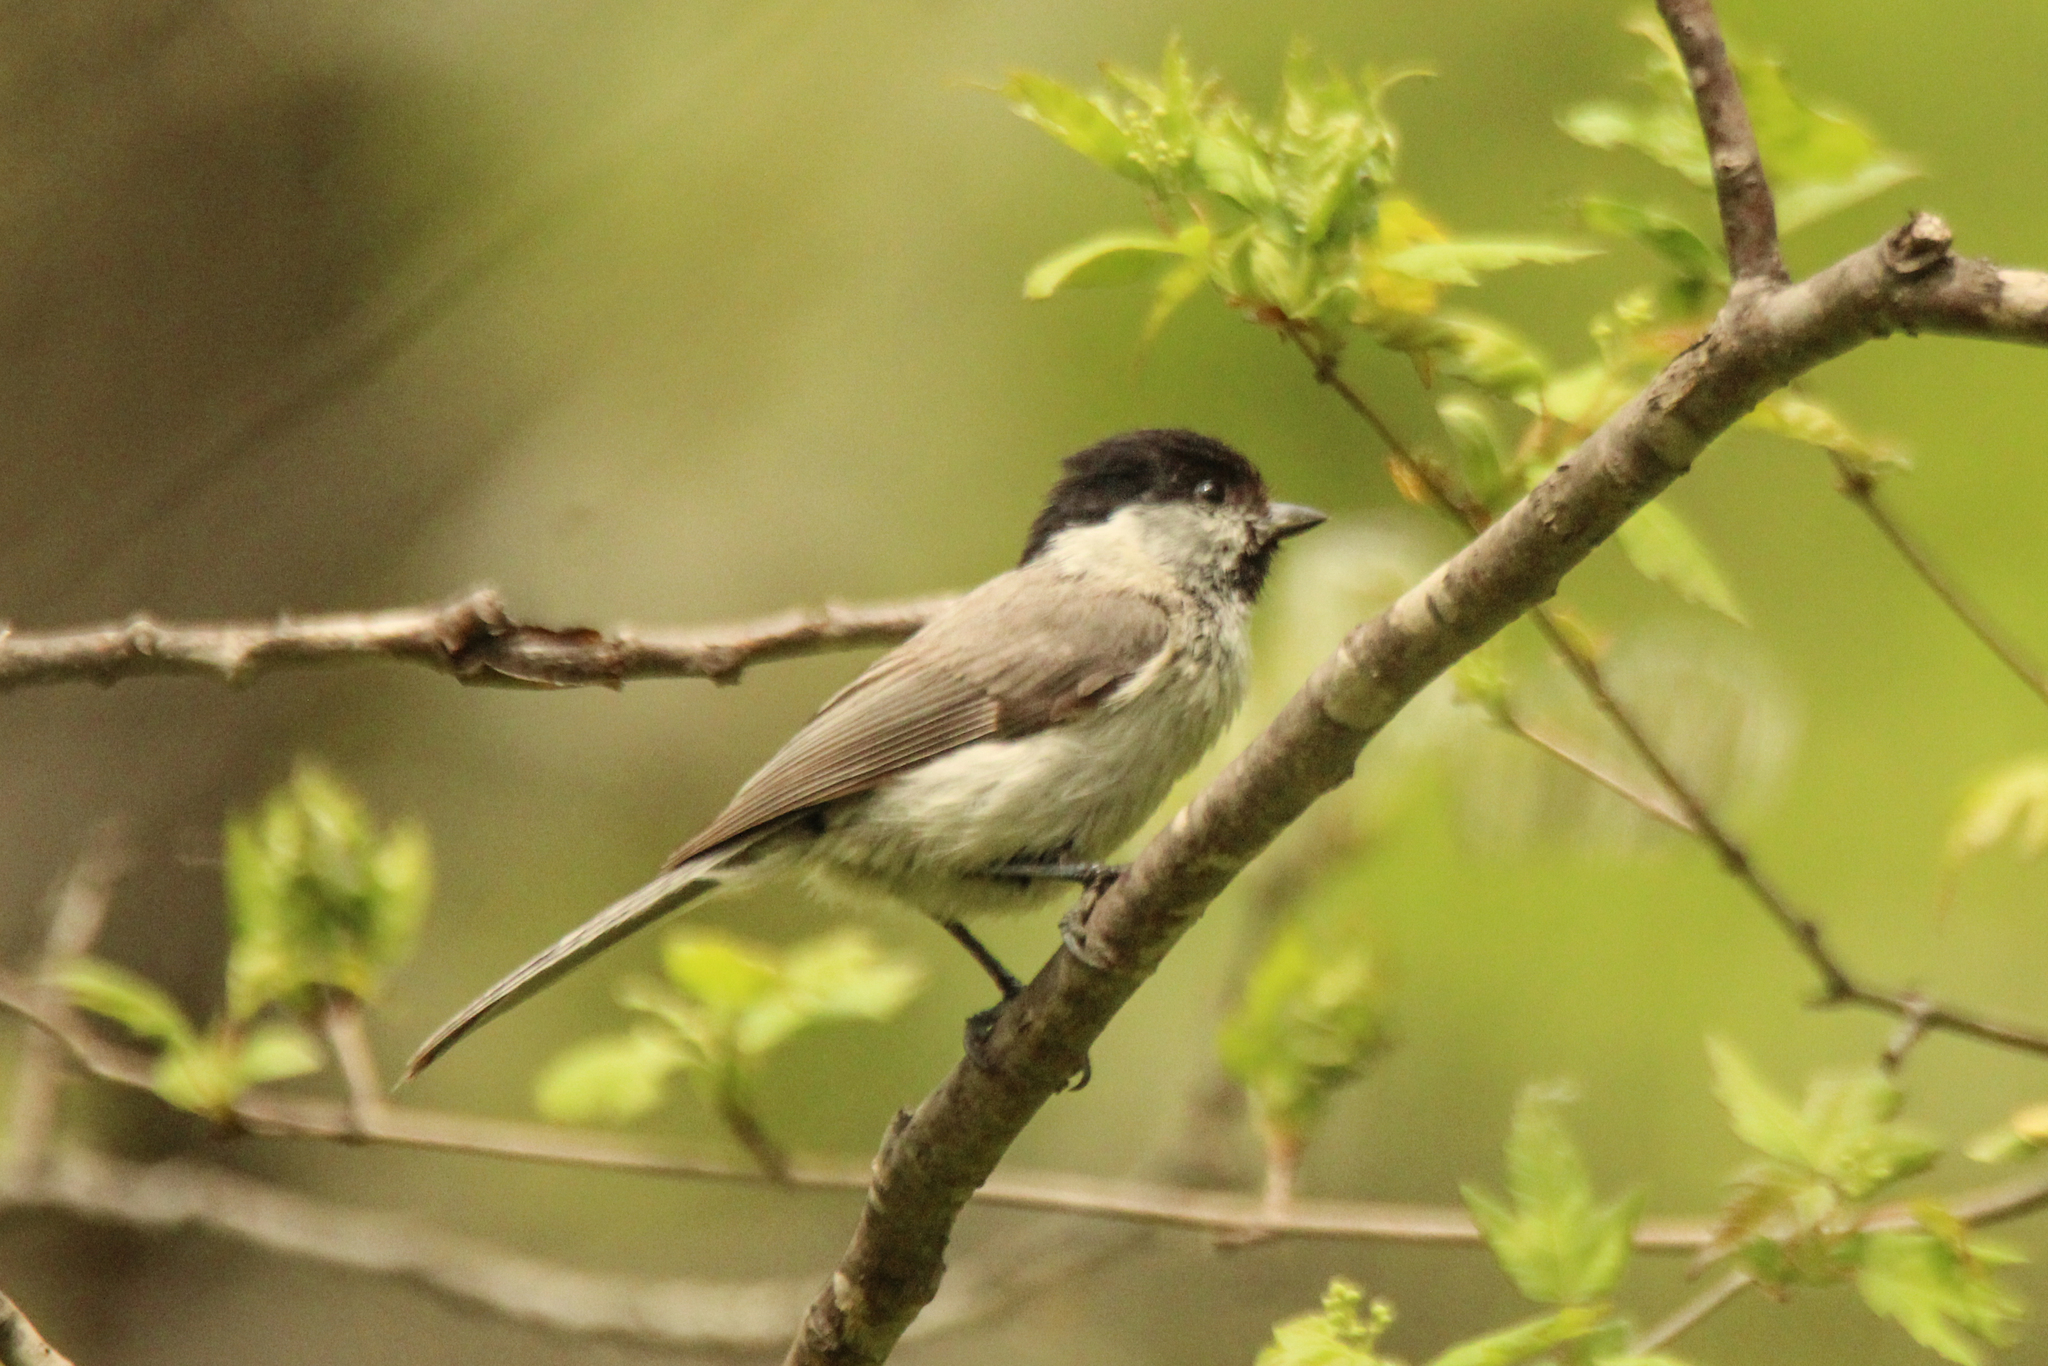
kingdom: Animalia
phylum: Chordata
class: Aves
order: Passeriformes
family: Paridae
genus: Poecile
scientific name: Poecile palustris
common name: Marsh tit
